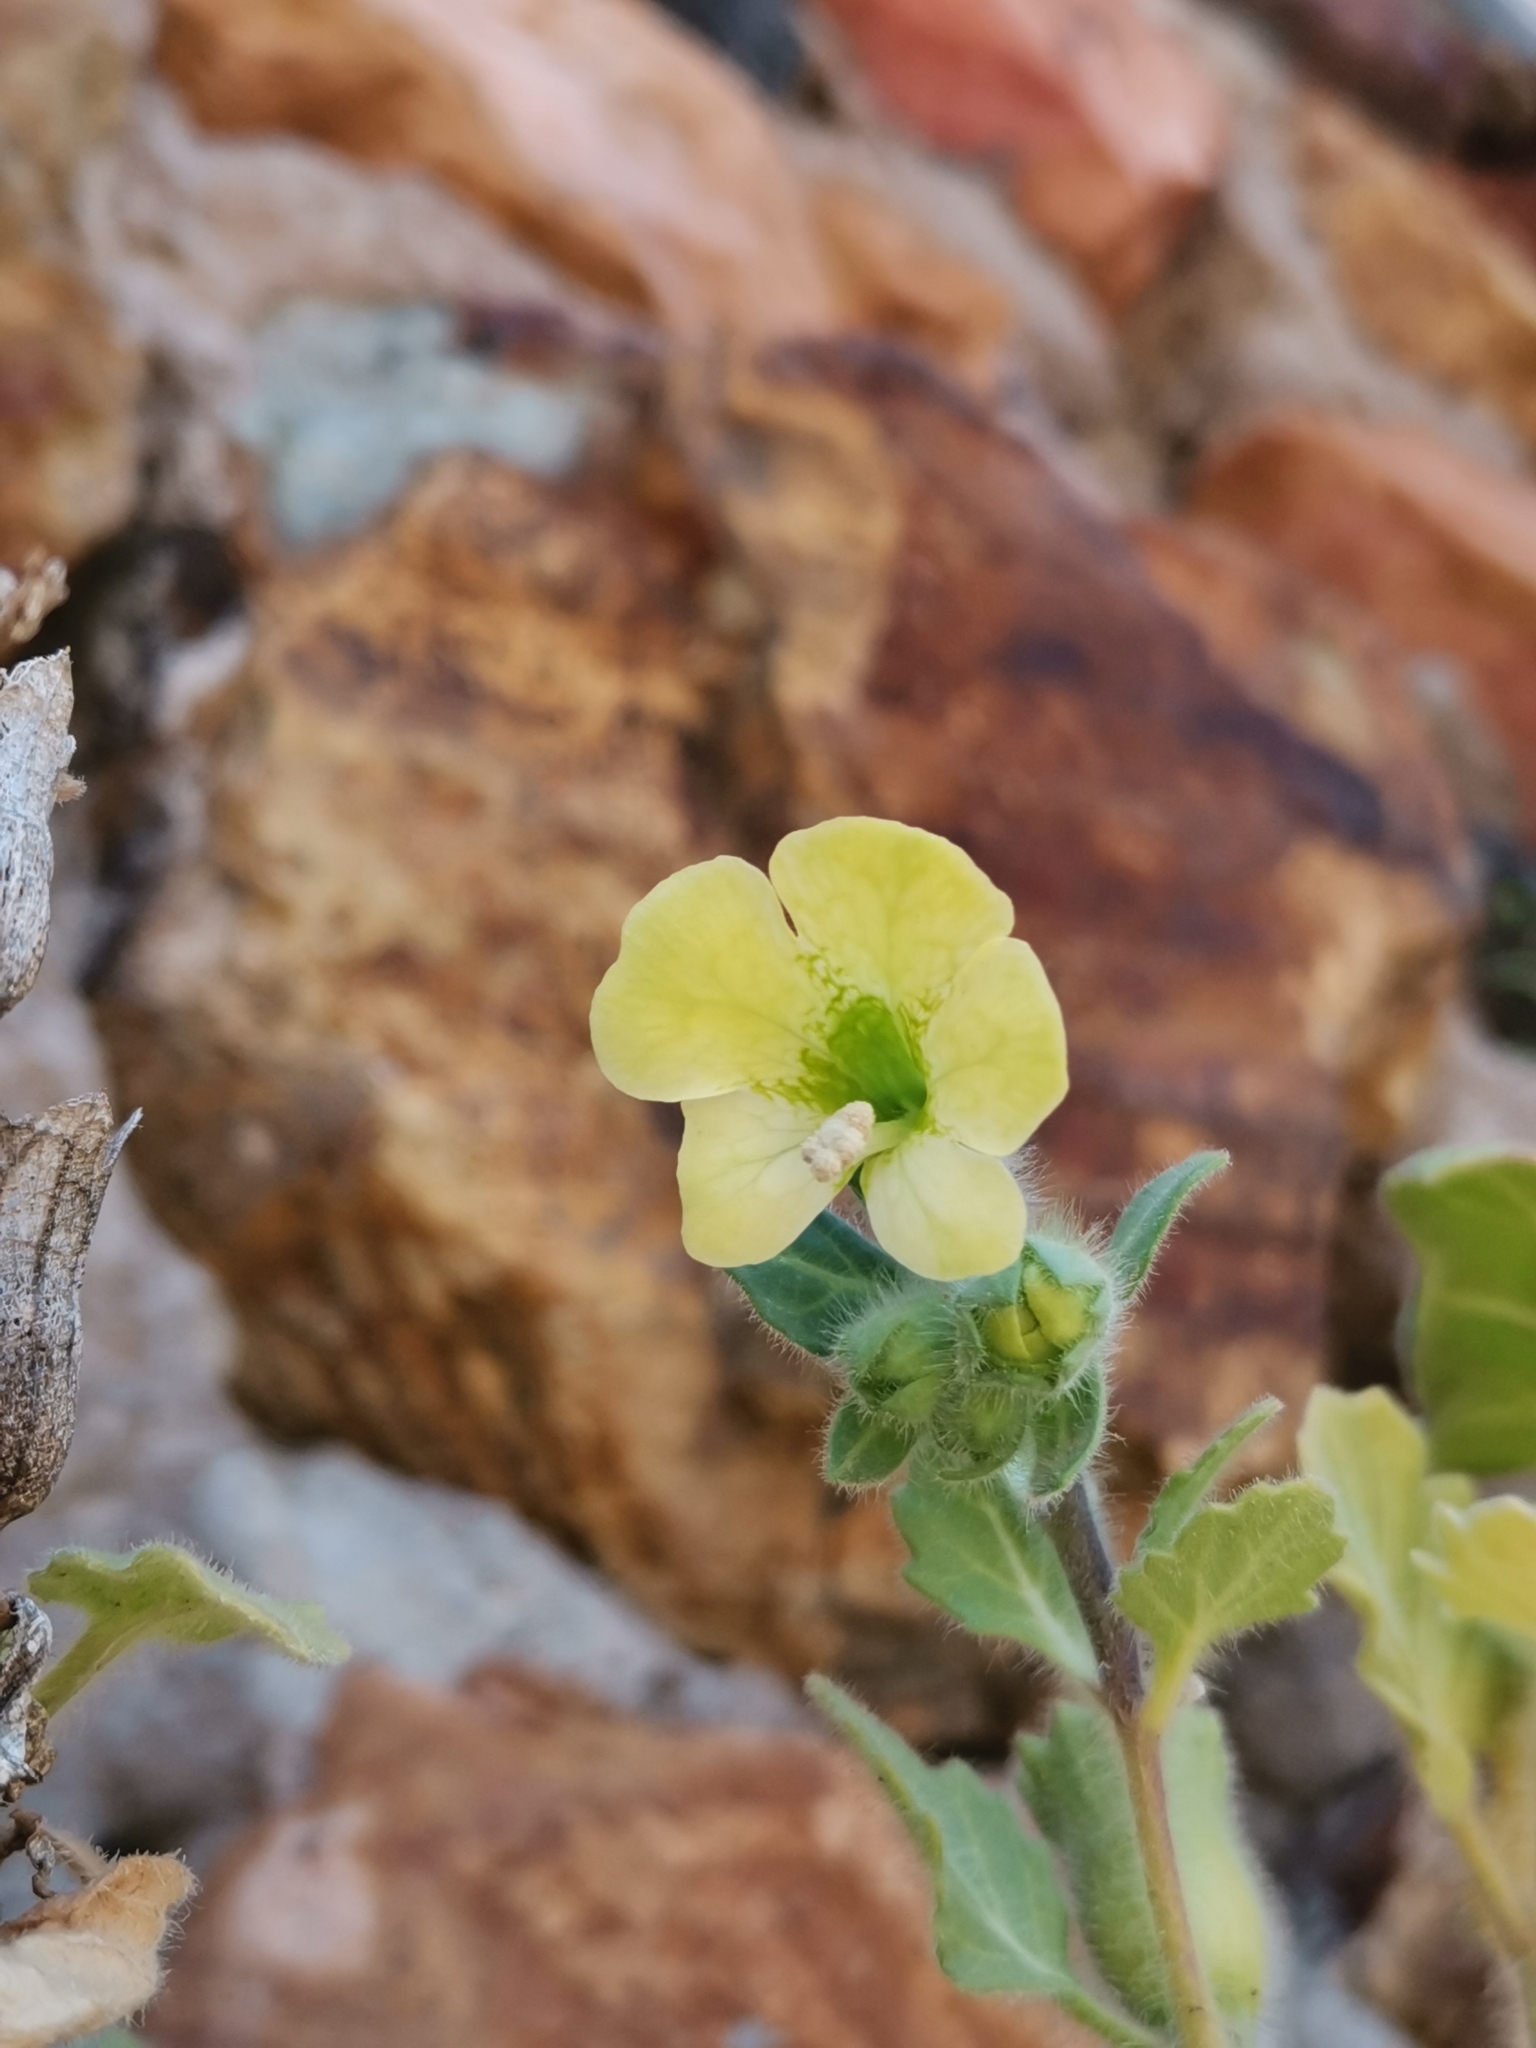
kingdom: Plantae
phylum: Tracheophyta
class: Magnoliopsida
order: Solanales
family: Solanaceae
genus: Hyoscyamus
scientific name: Hyoscyamus albus
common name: White henbane
